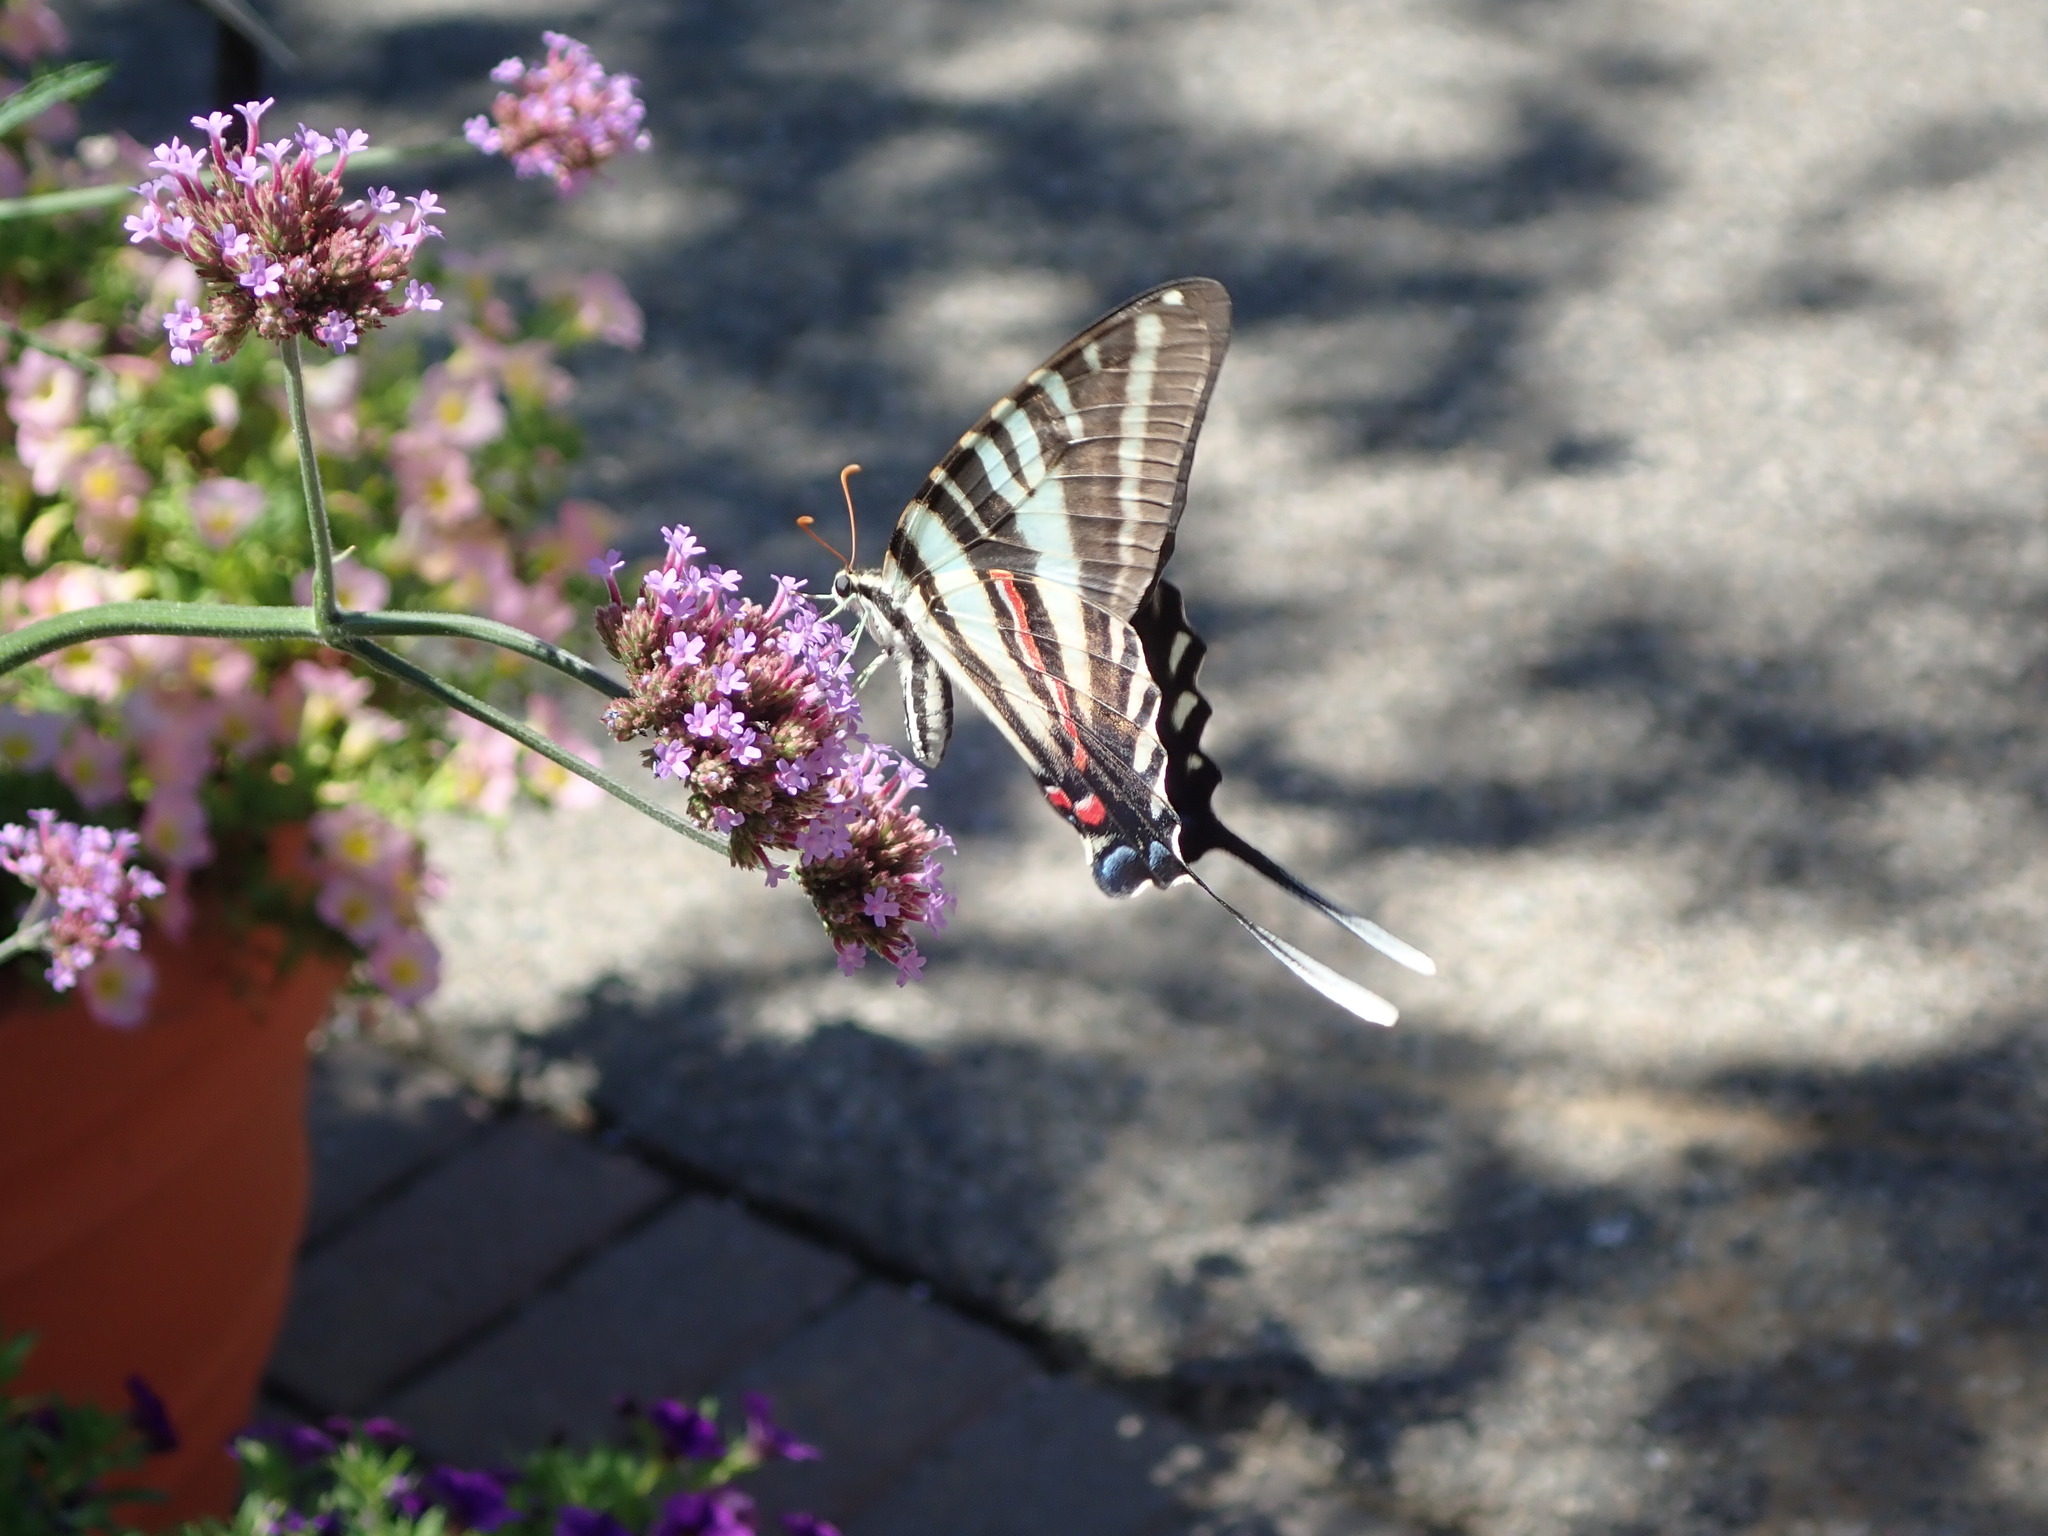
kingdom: Animalia
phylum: Arthropoda
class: Insecta
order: Lepidoptera
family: Papilionidae
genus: Protographium
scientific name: Protographium marcellus
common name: Zebra swallowtail
